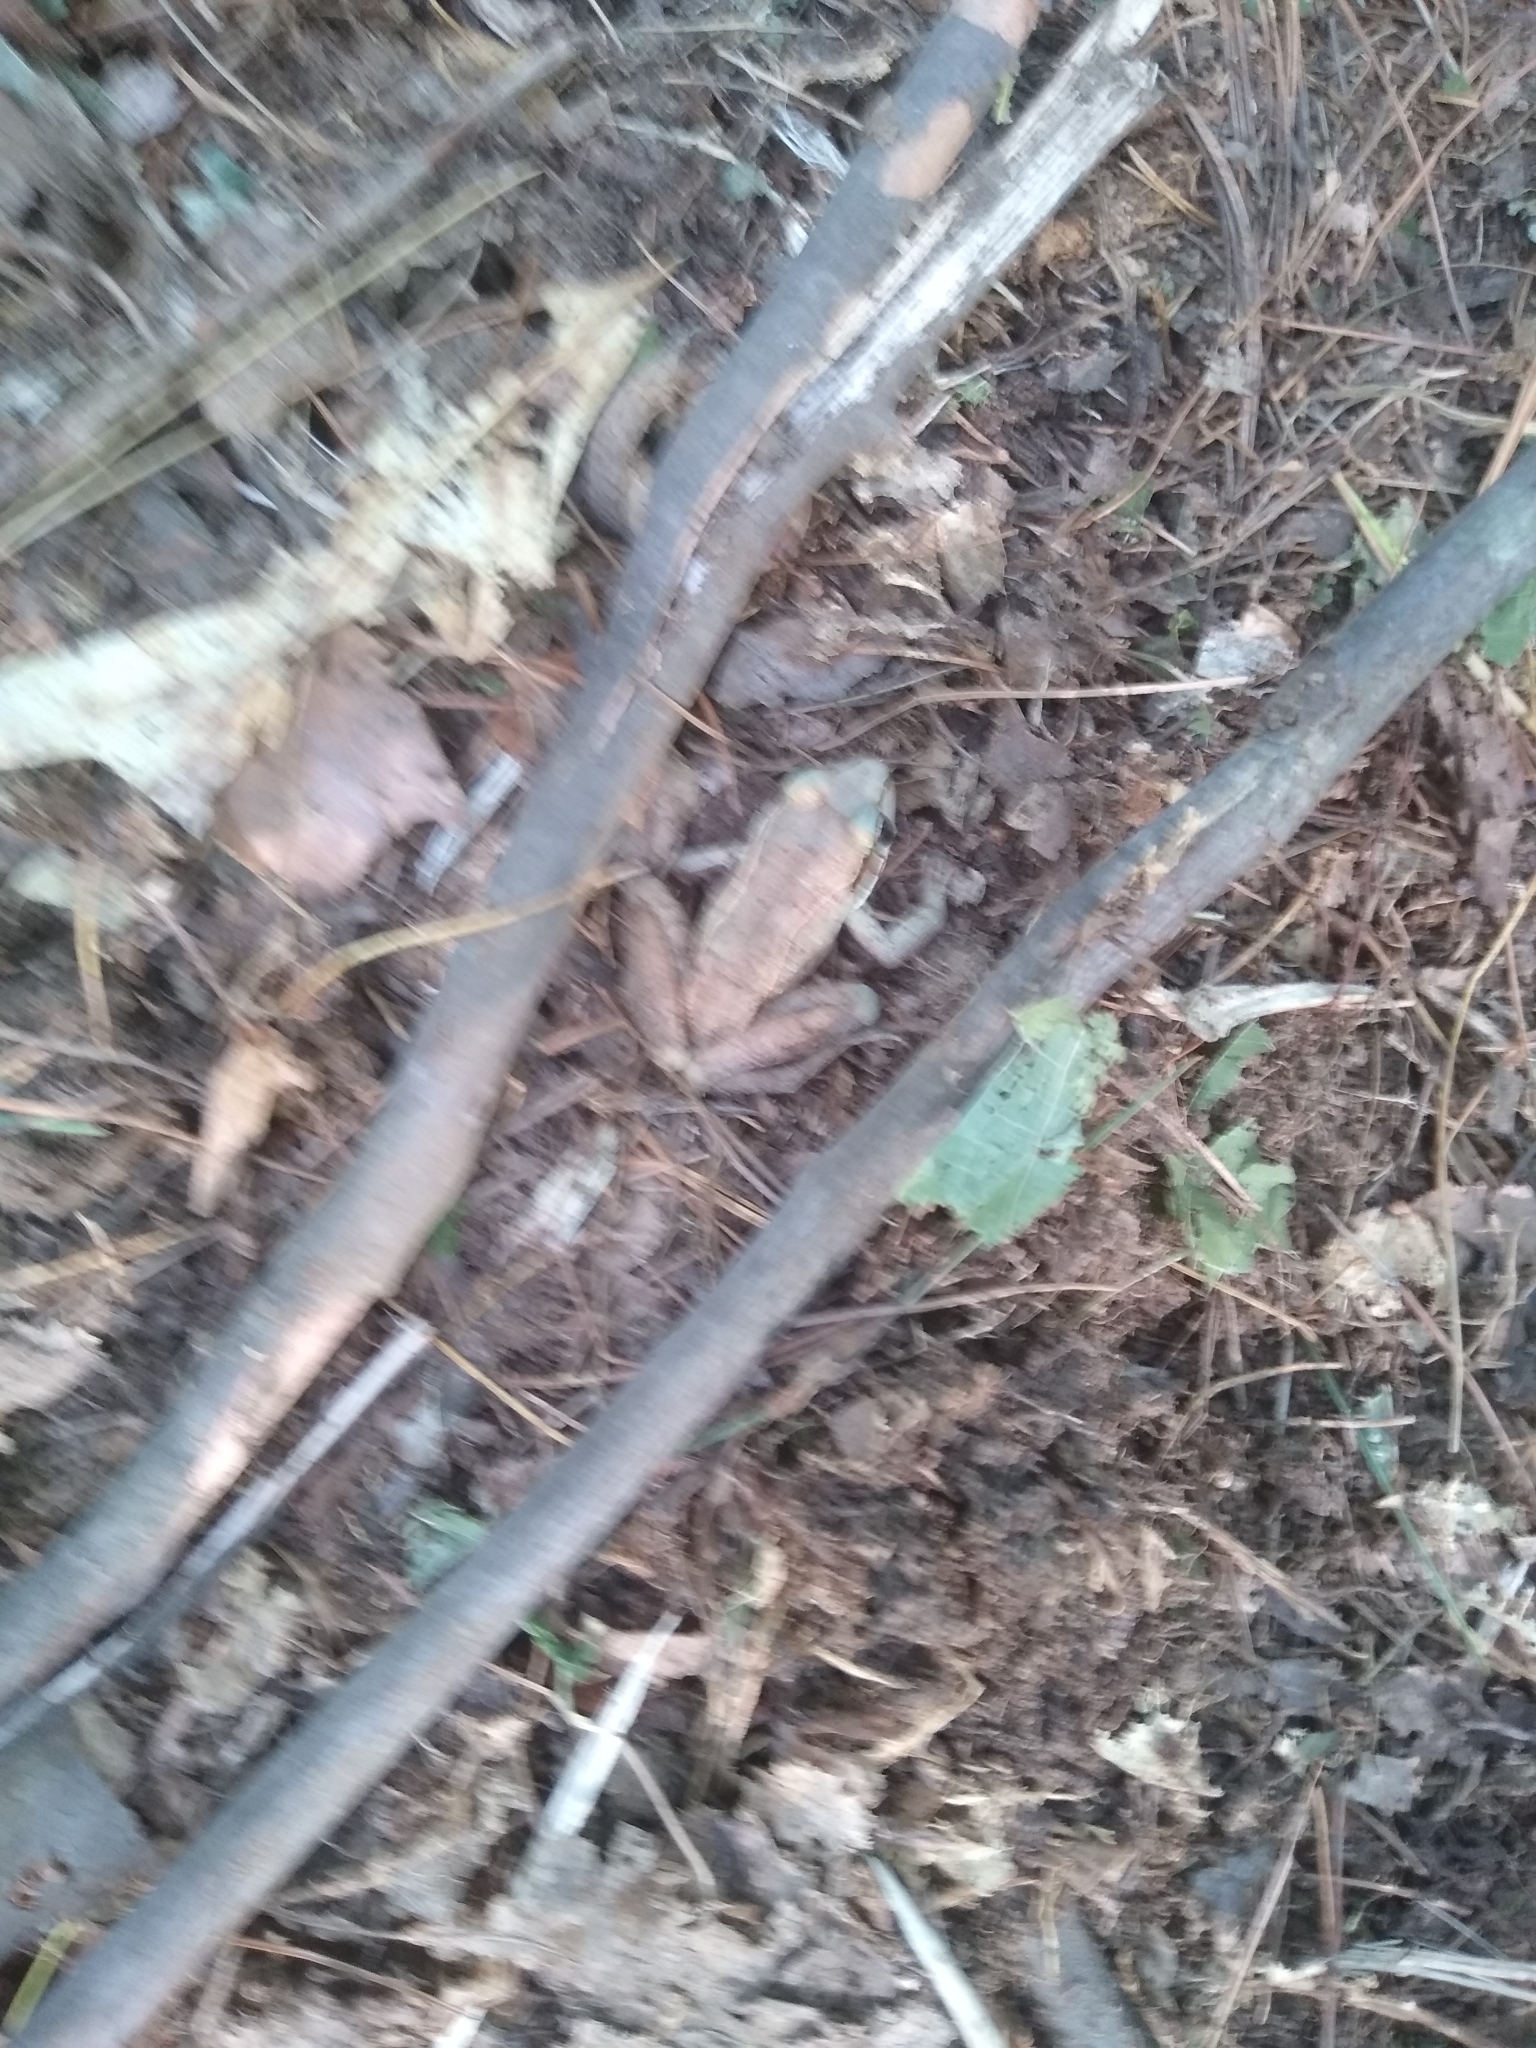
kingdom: Animalia
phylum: Chordata
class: Amphibia
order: Anura
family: Ranidae
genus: Lithobates
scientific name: Lithobates sylvaticus
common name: Wood frog
